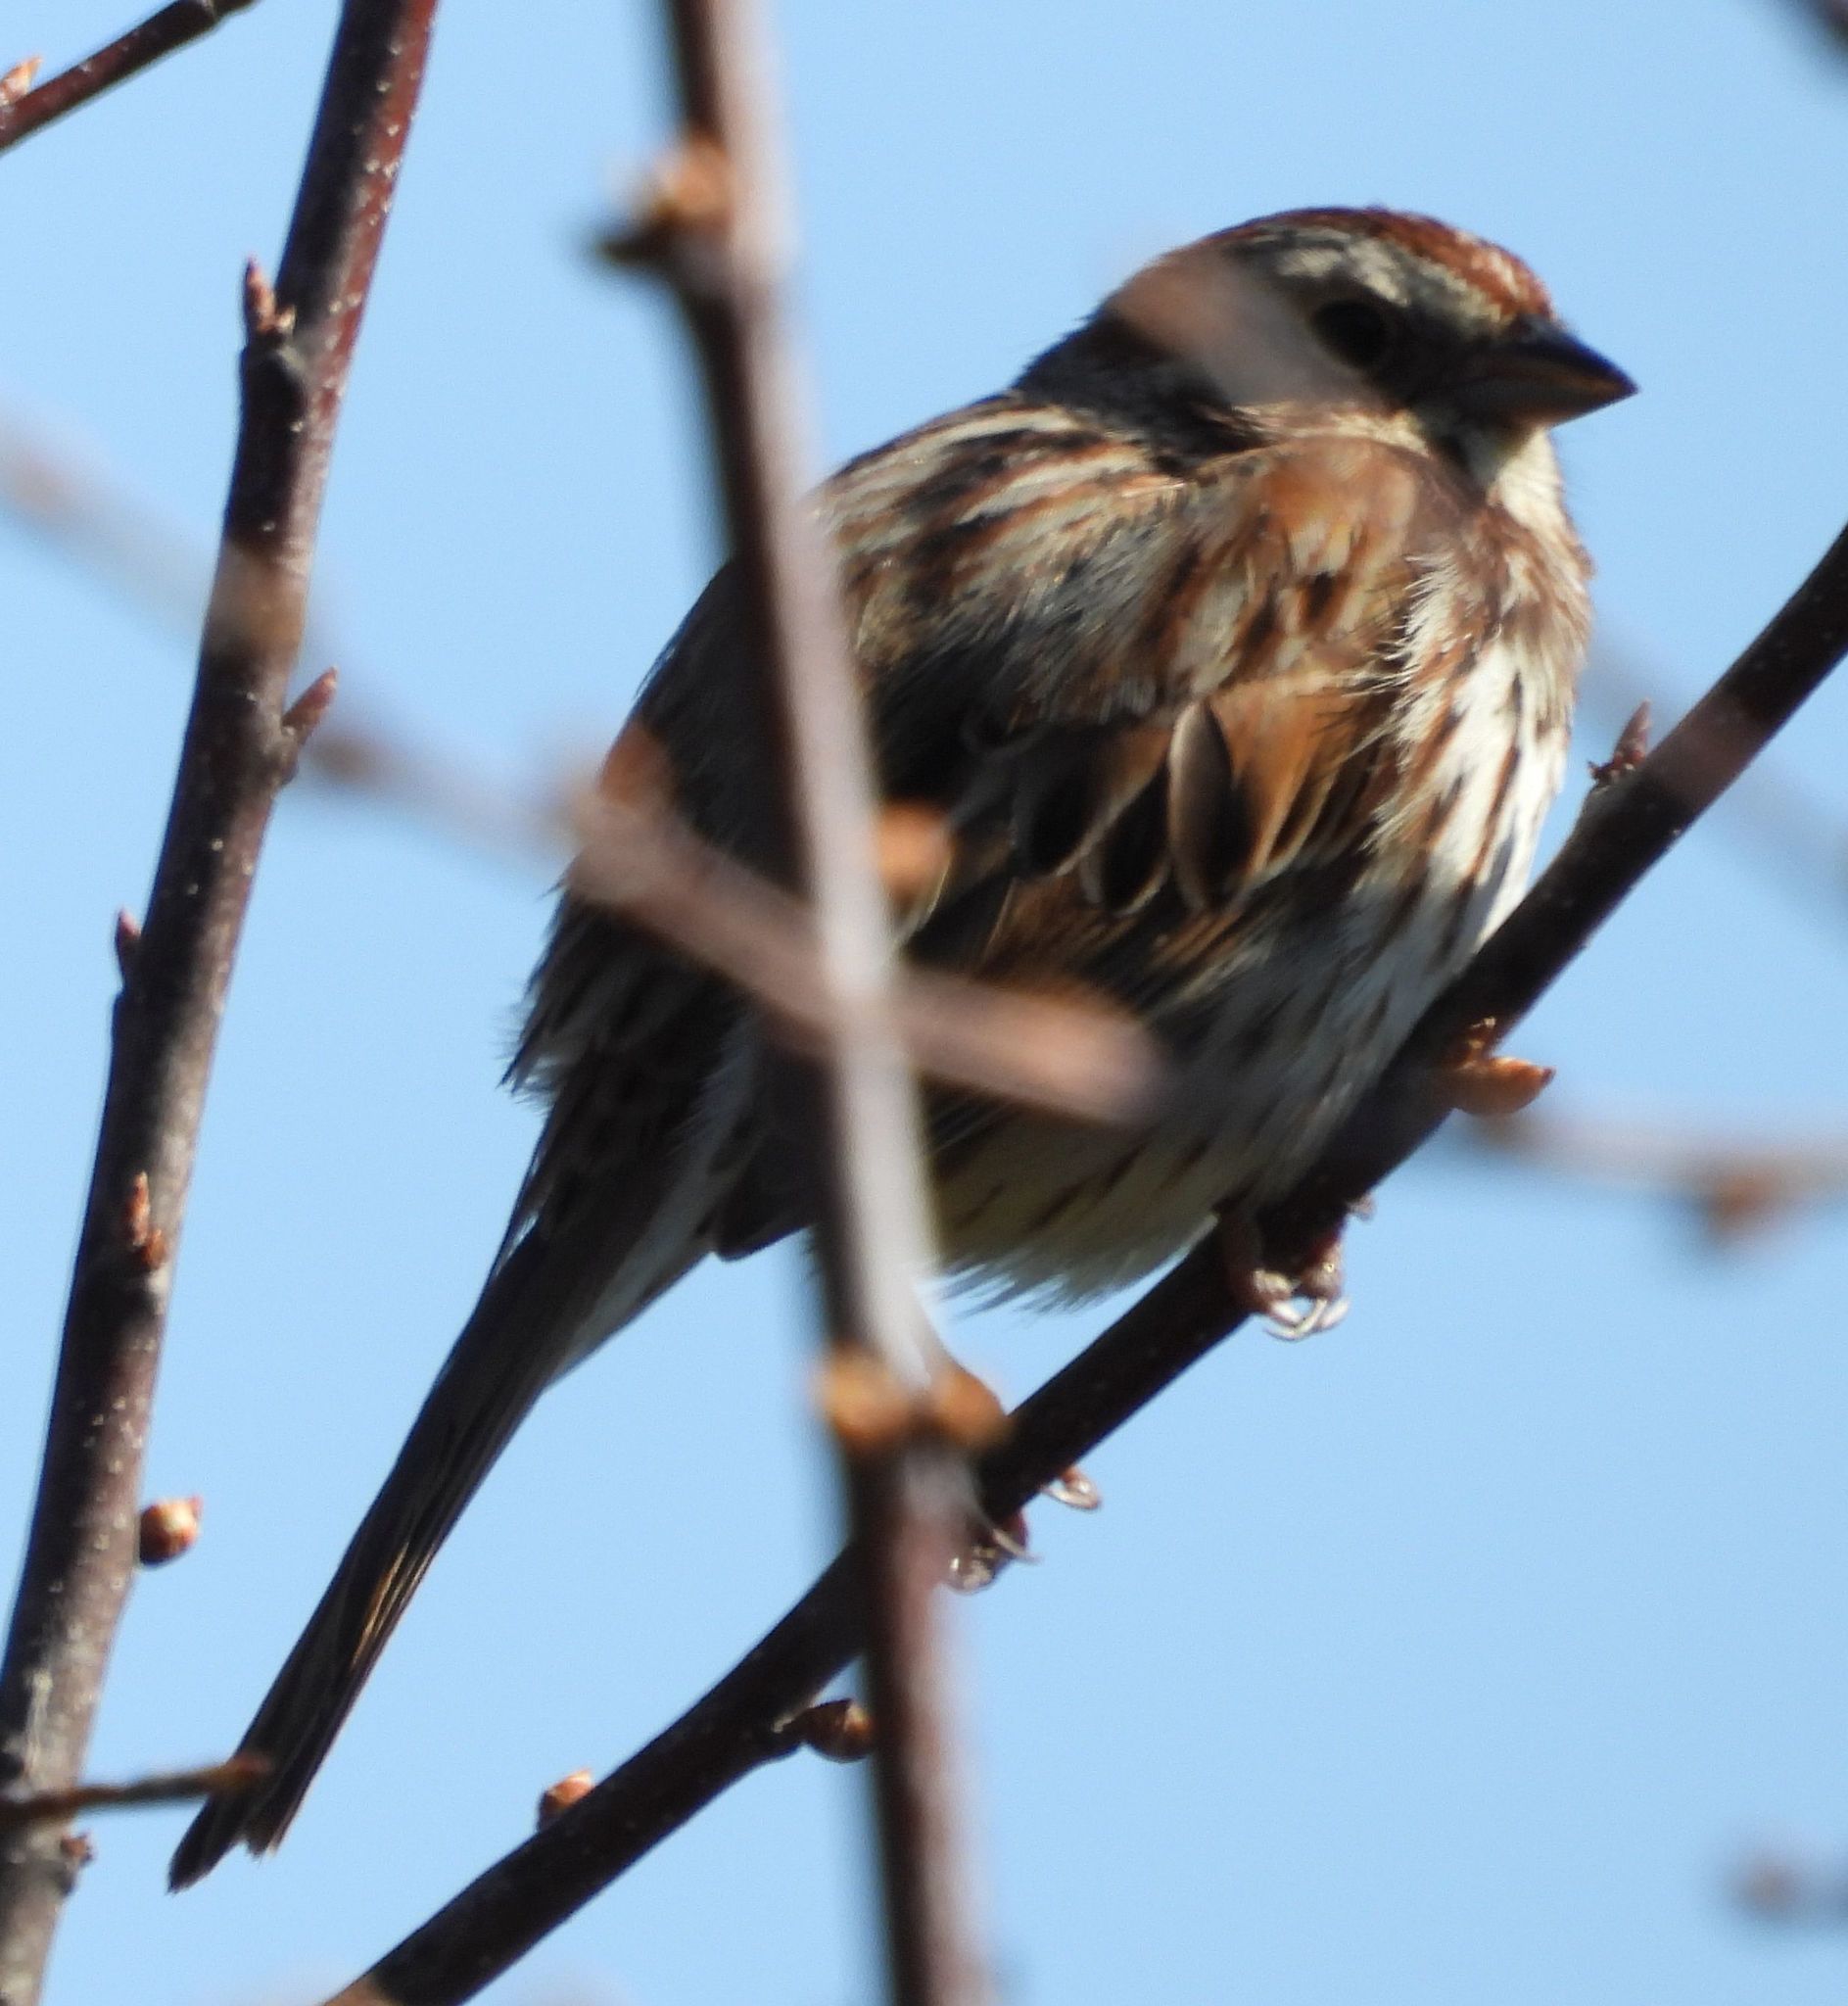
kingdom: Animalia
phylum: Chordata
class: Aves
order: Passeriformes
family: Passerellidae
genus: Melospiza
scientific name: Melospiza melodia
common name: Song sparrow
